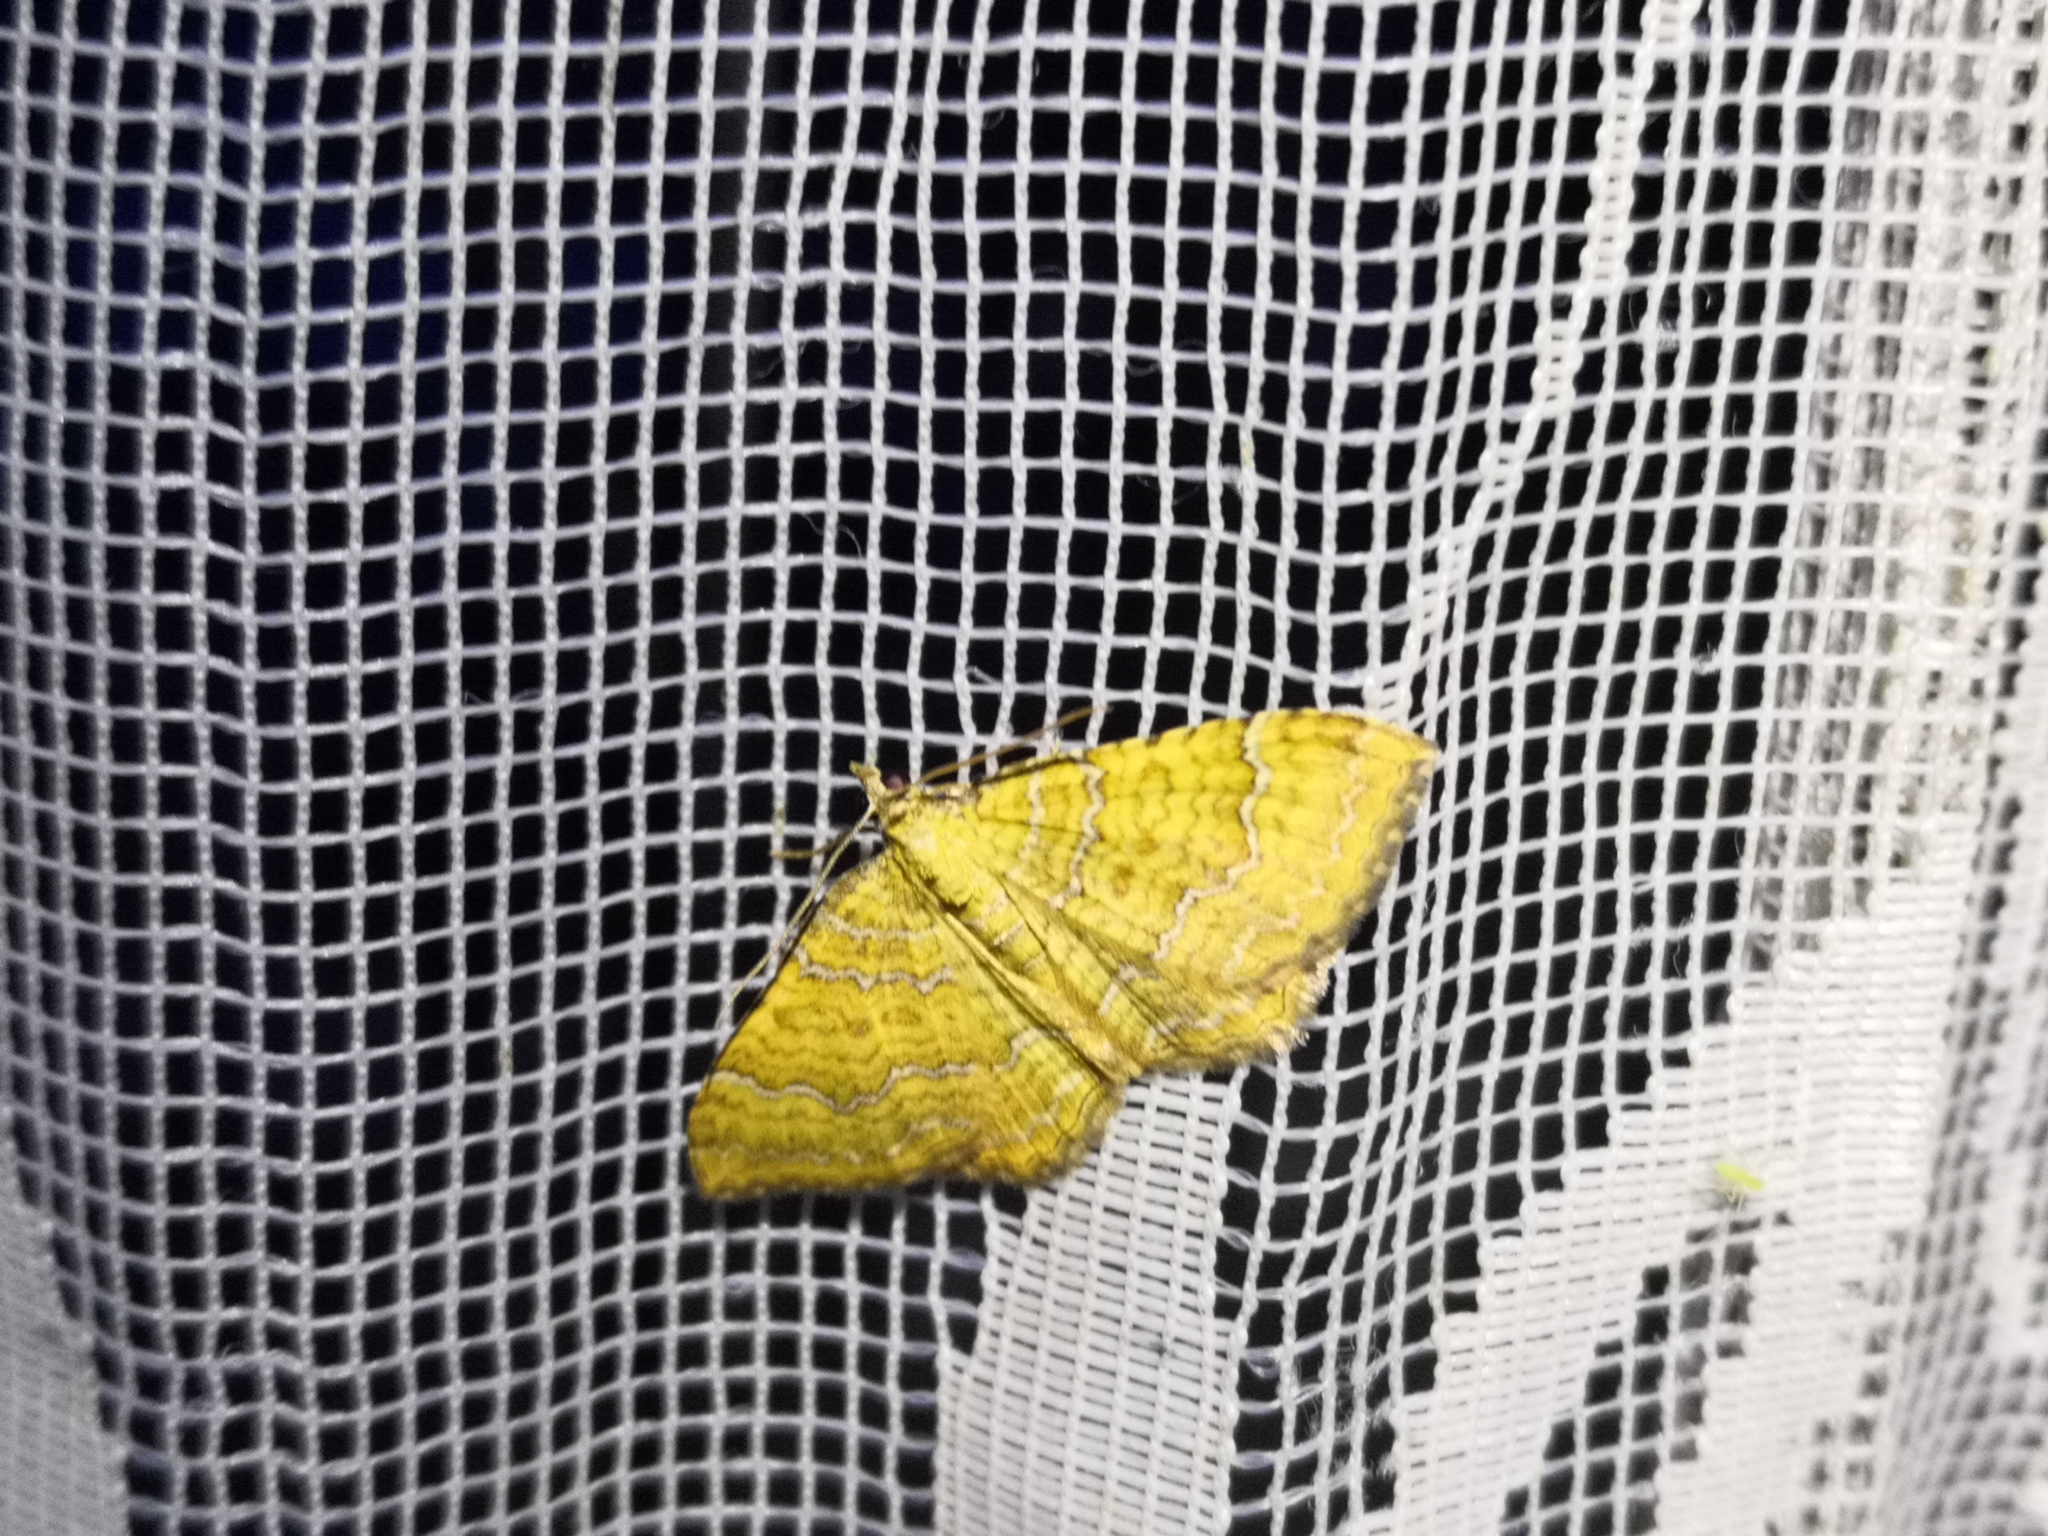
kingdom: Animalia
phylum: Arthropoda
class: Insecta
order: Lepidoptera
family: Geometridae
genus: Camptogramma
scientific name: Camptogramma bilineata
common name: Yellow shell
